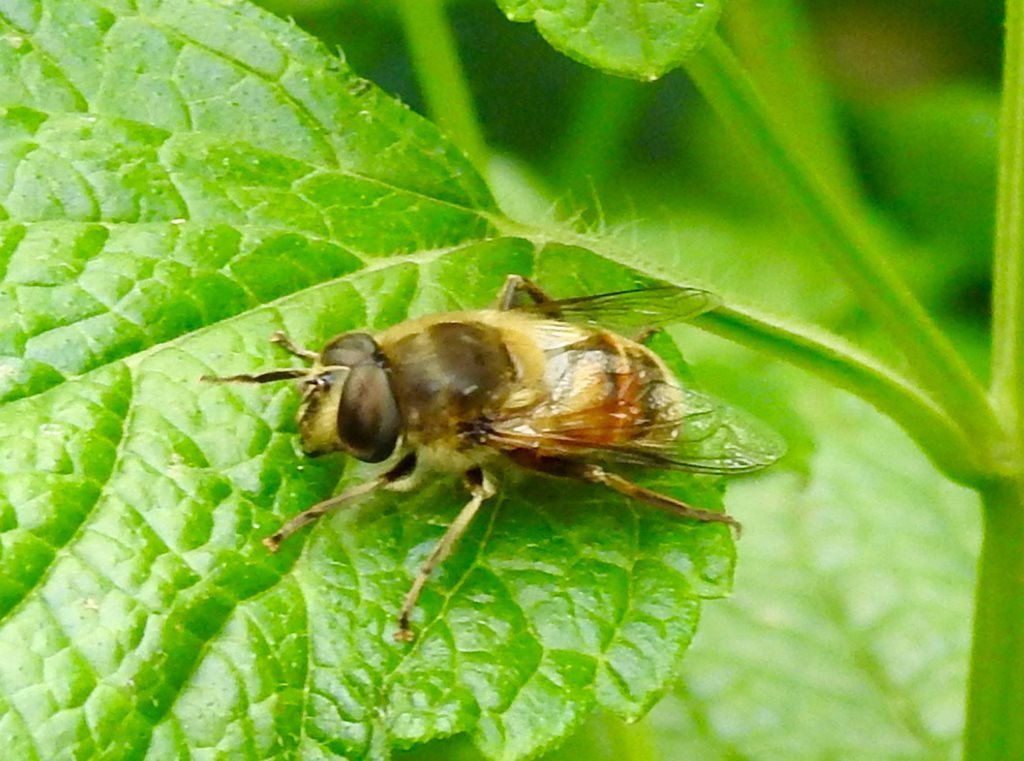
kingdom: Animalia
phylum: Arthropoda
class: Insecta
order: Diptera
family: Syrphidae
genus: Eristalis
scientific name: Eristalis tenax
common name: Drone fly
